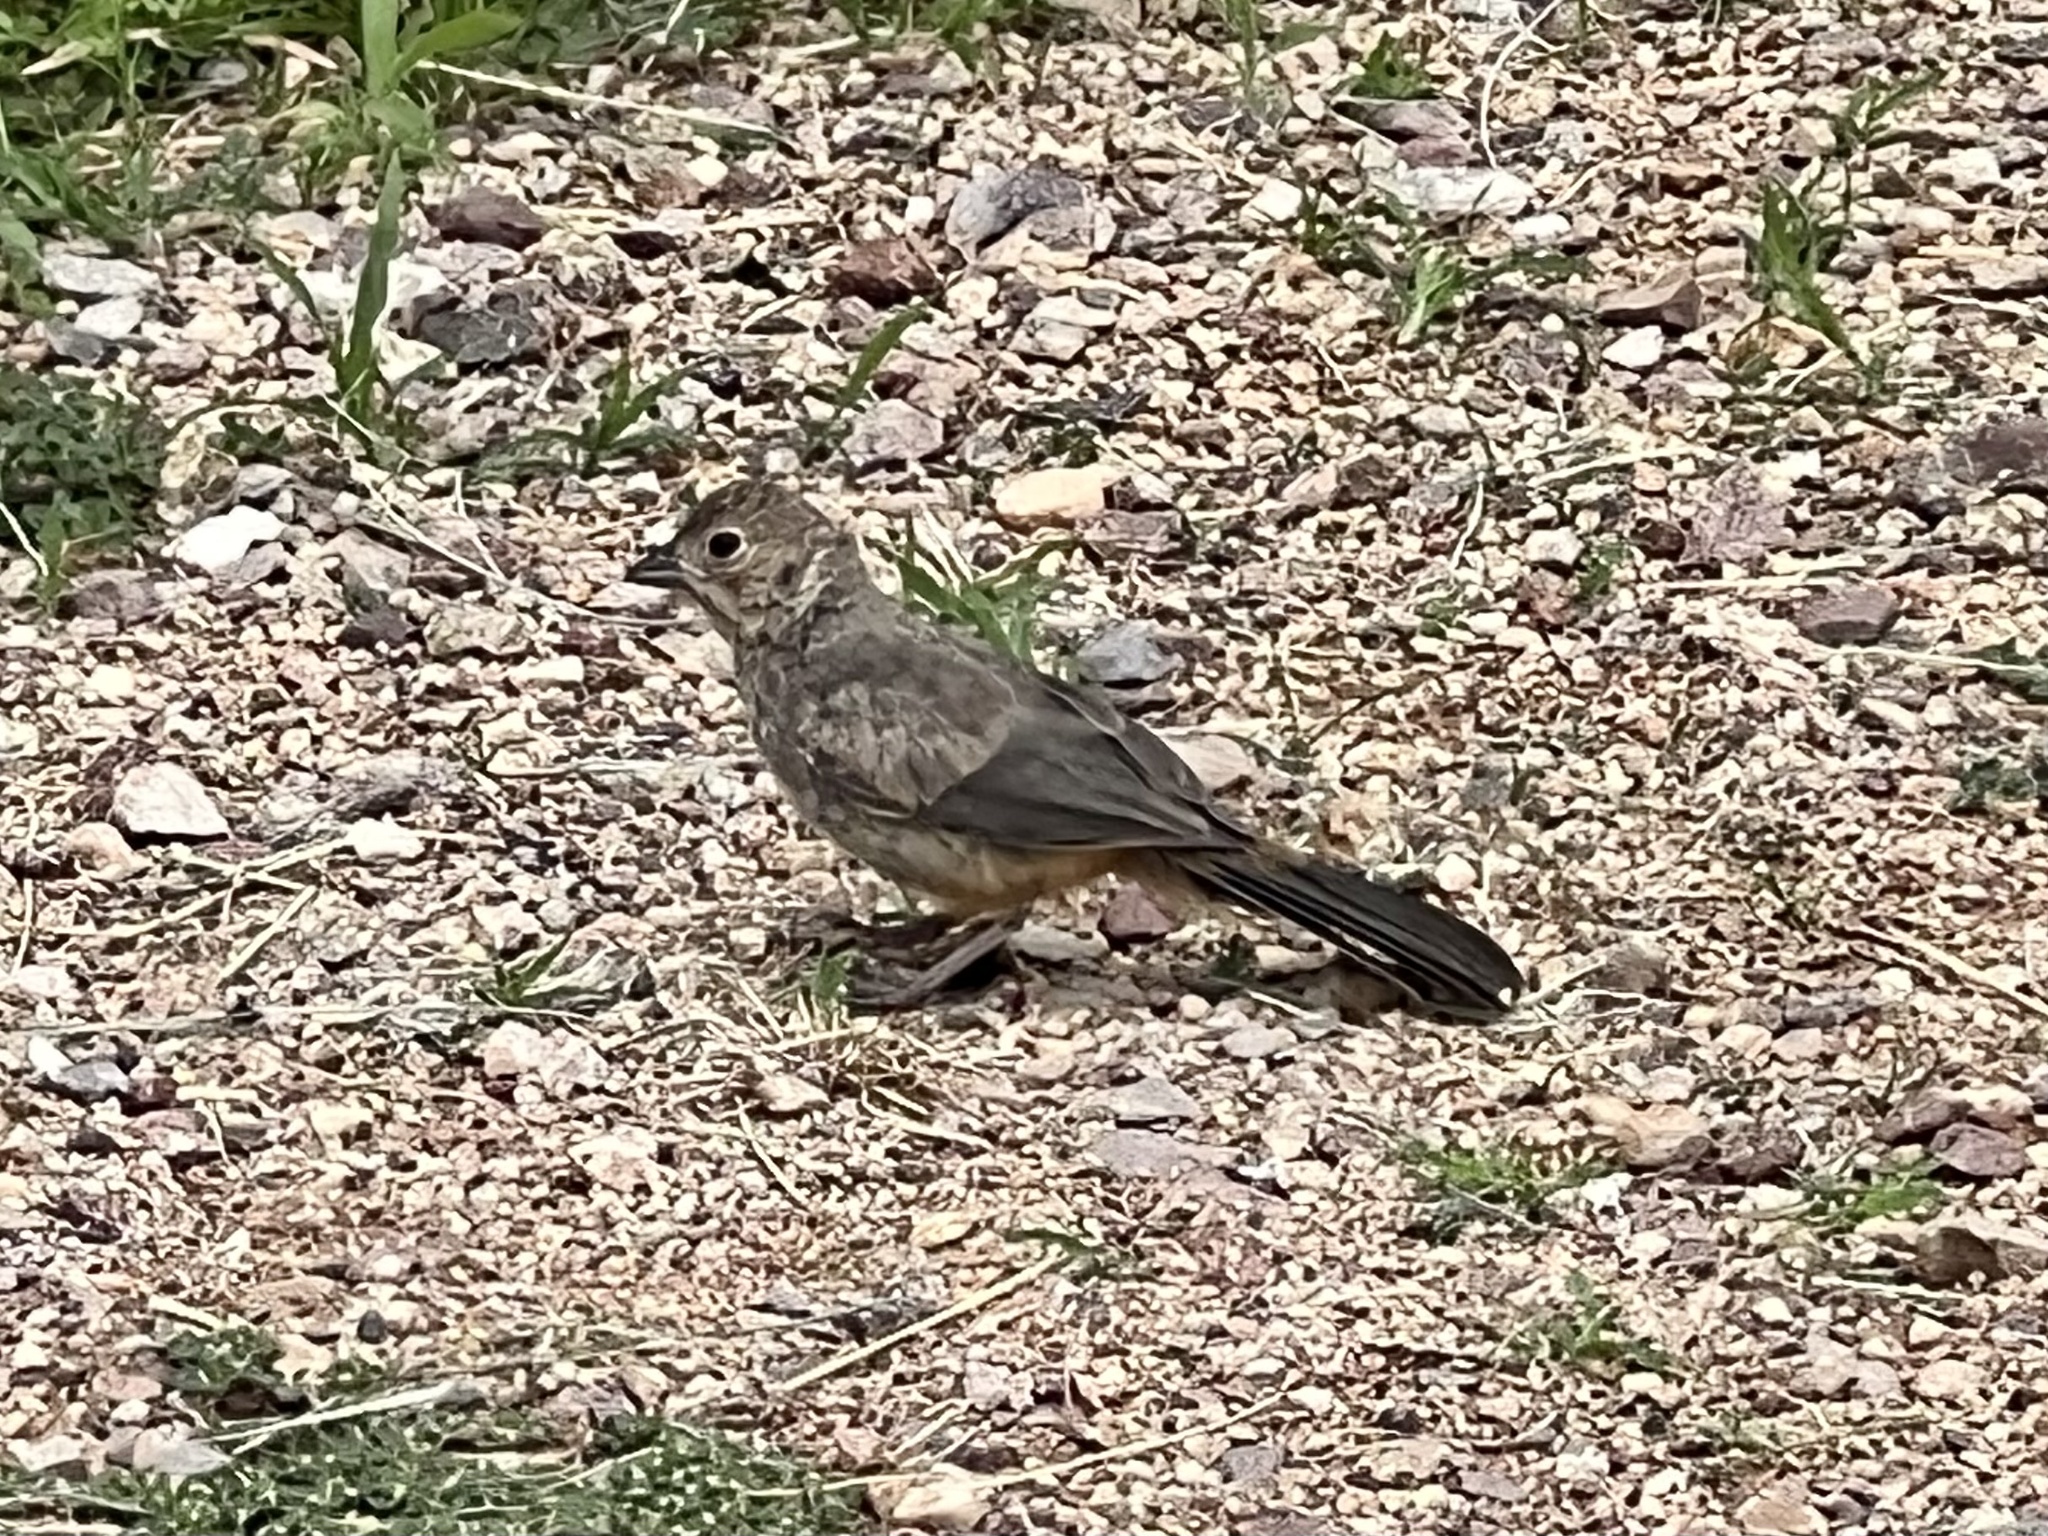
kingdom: Animalia
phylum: Chordata
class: Aves
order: Passeriformes
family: Passerellidae
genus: Melozone
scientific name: Melozone fusca
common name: Canyon towhee
